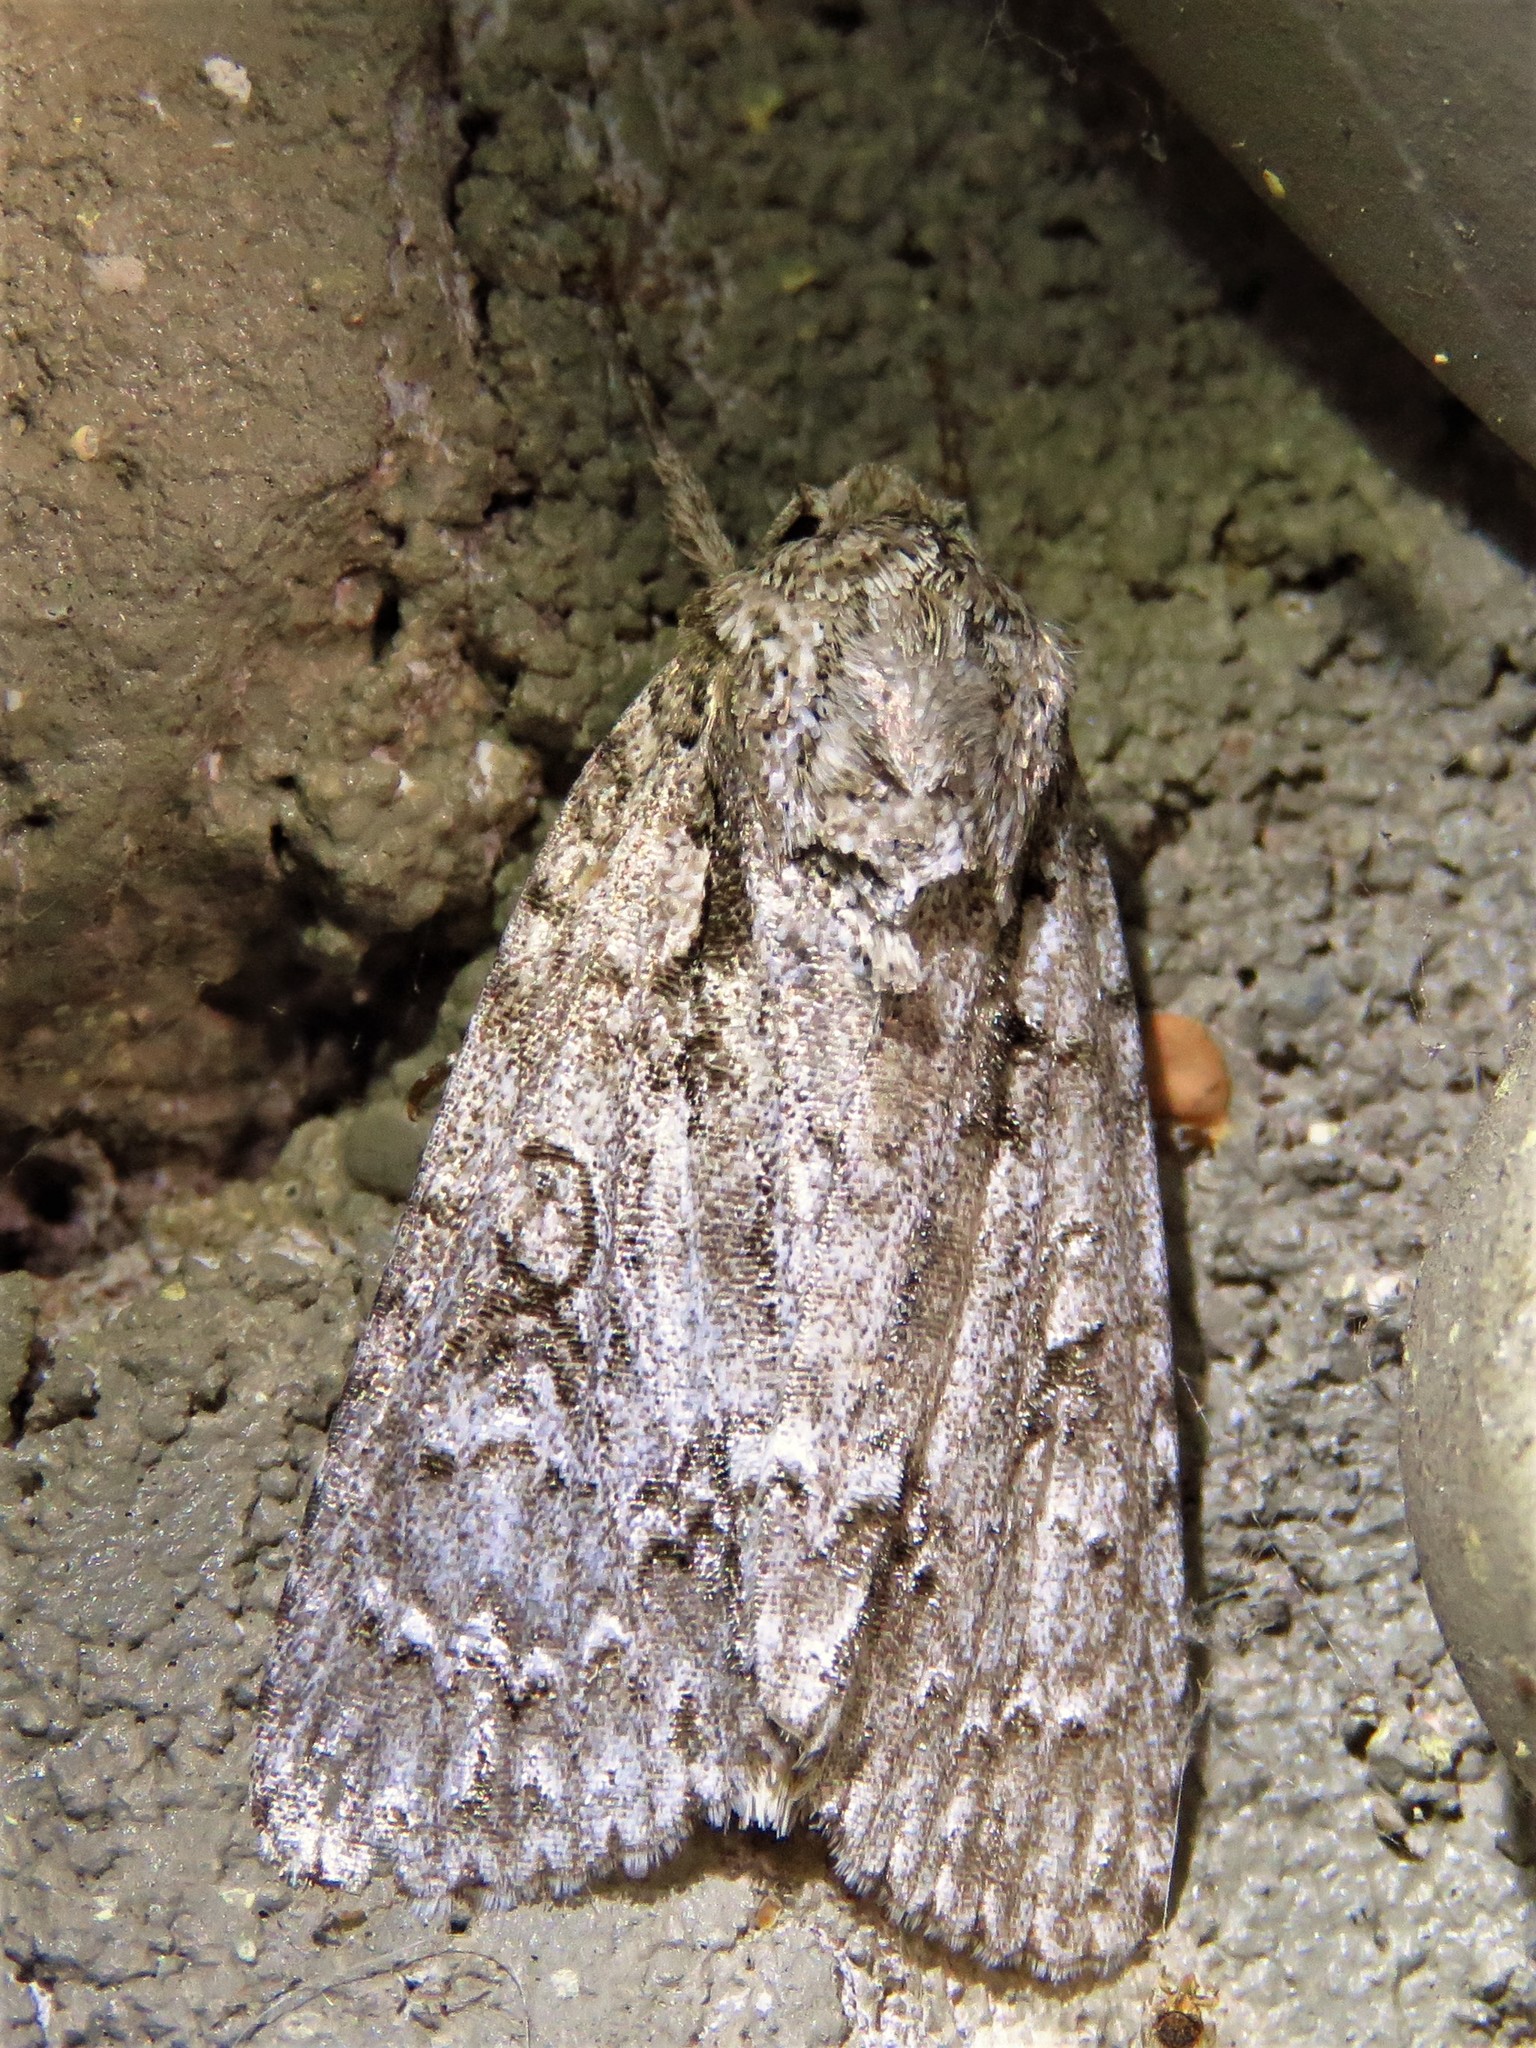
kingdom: Animalia
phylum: Arthropoda
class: Insecta
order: Lepidoptera
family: Noctuidae
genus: Acronicta
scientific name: Acronicta clarescens
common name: Clear dagger
